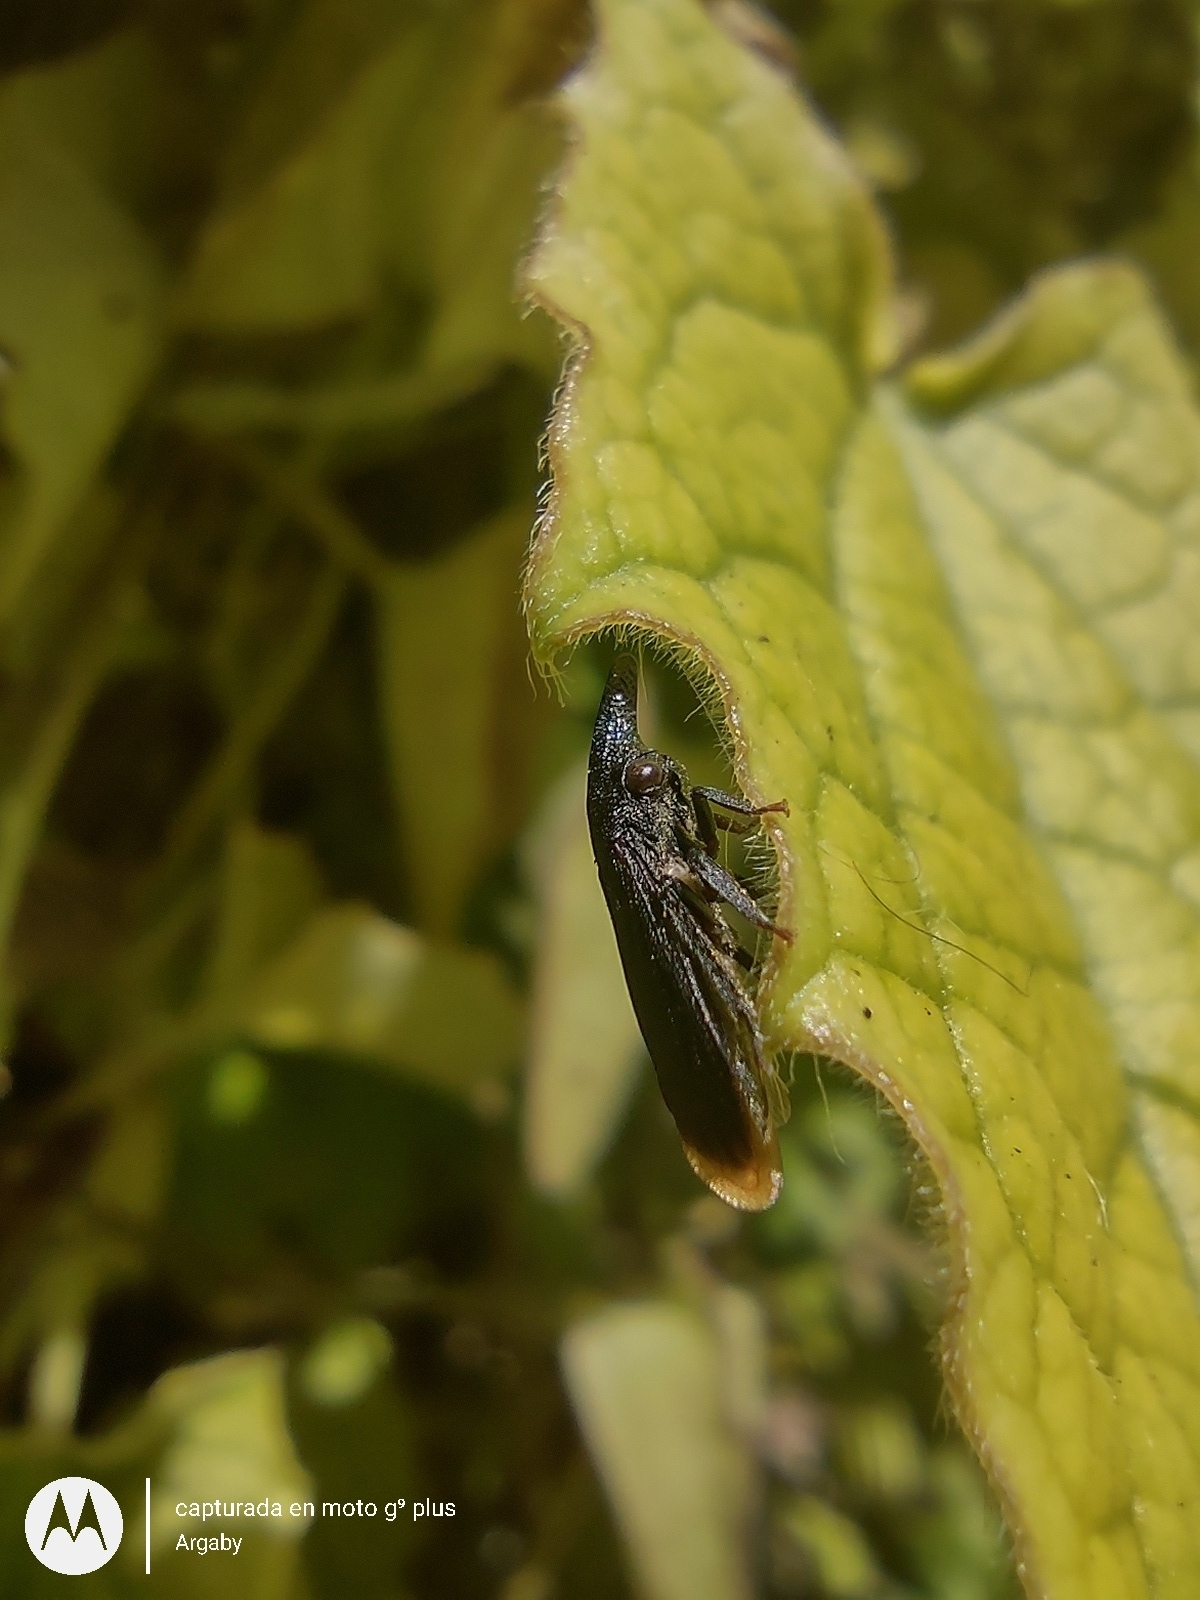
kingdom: Animalia
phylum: Arthropoda
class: Insecta
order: Hemiptera
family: Membracidae
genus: Kronides
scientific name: Kronides cochleata
